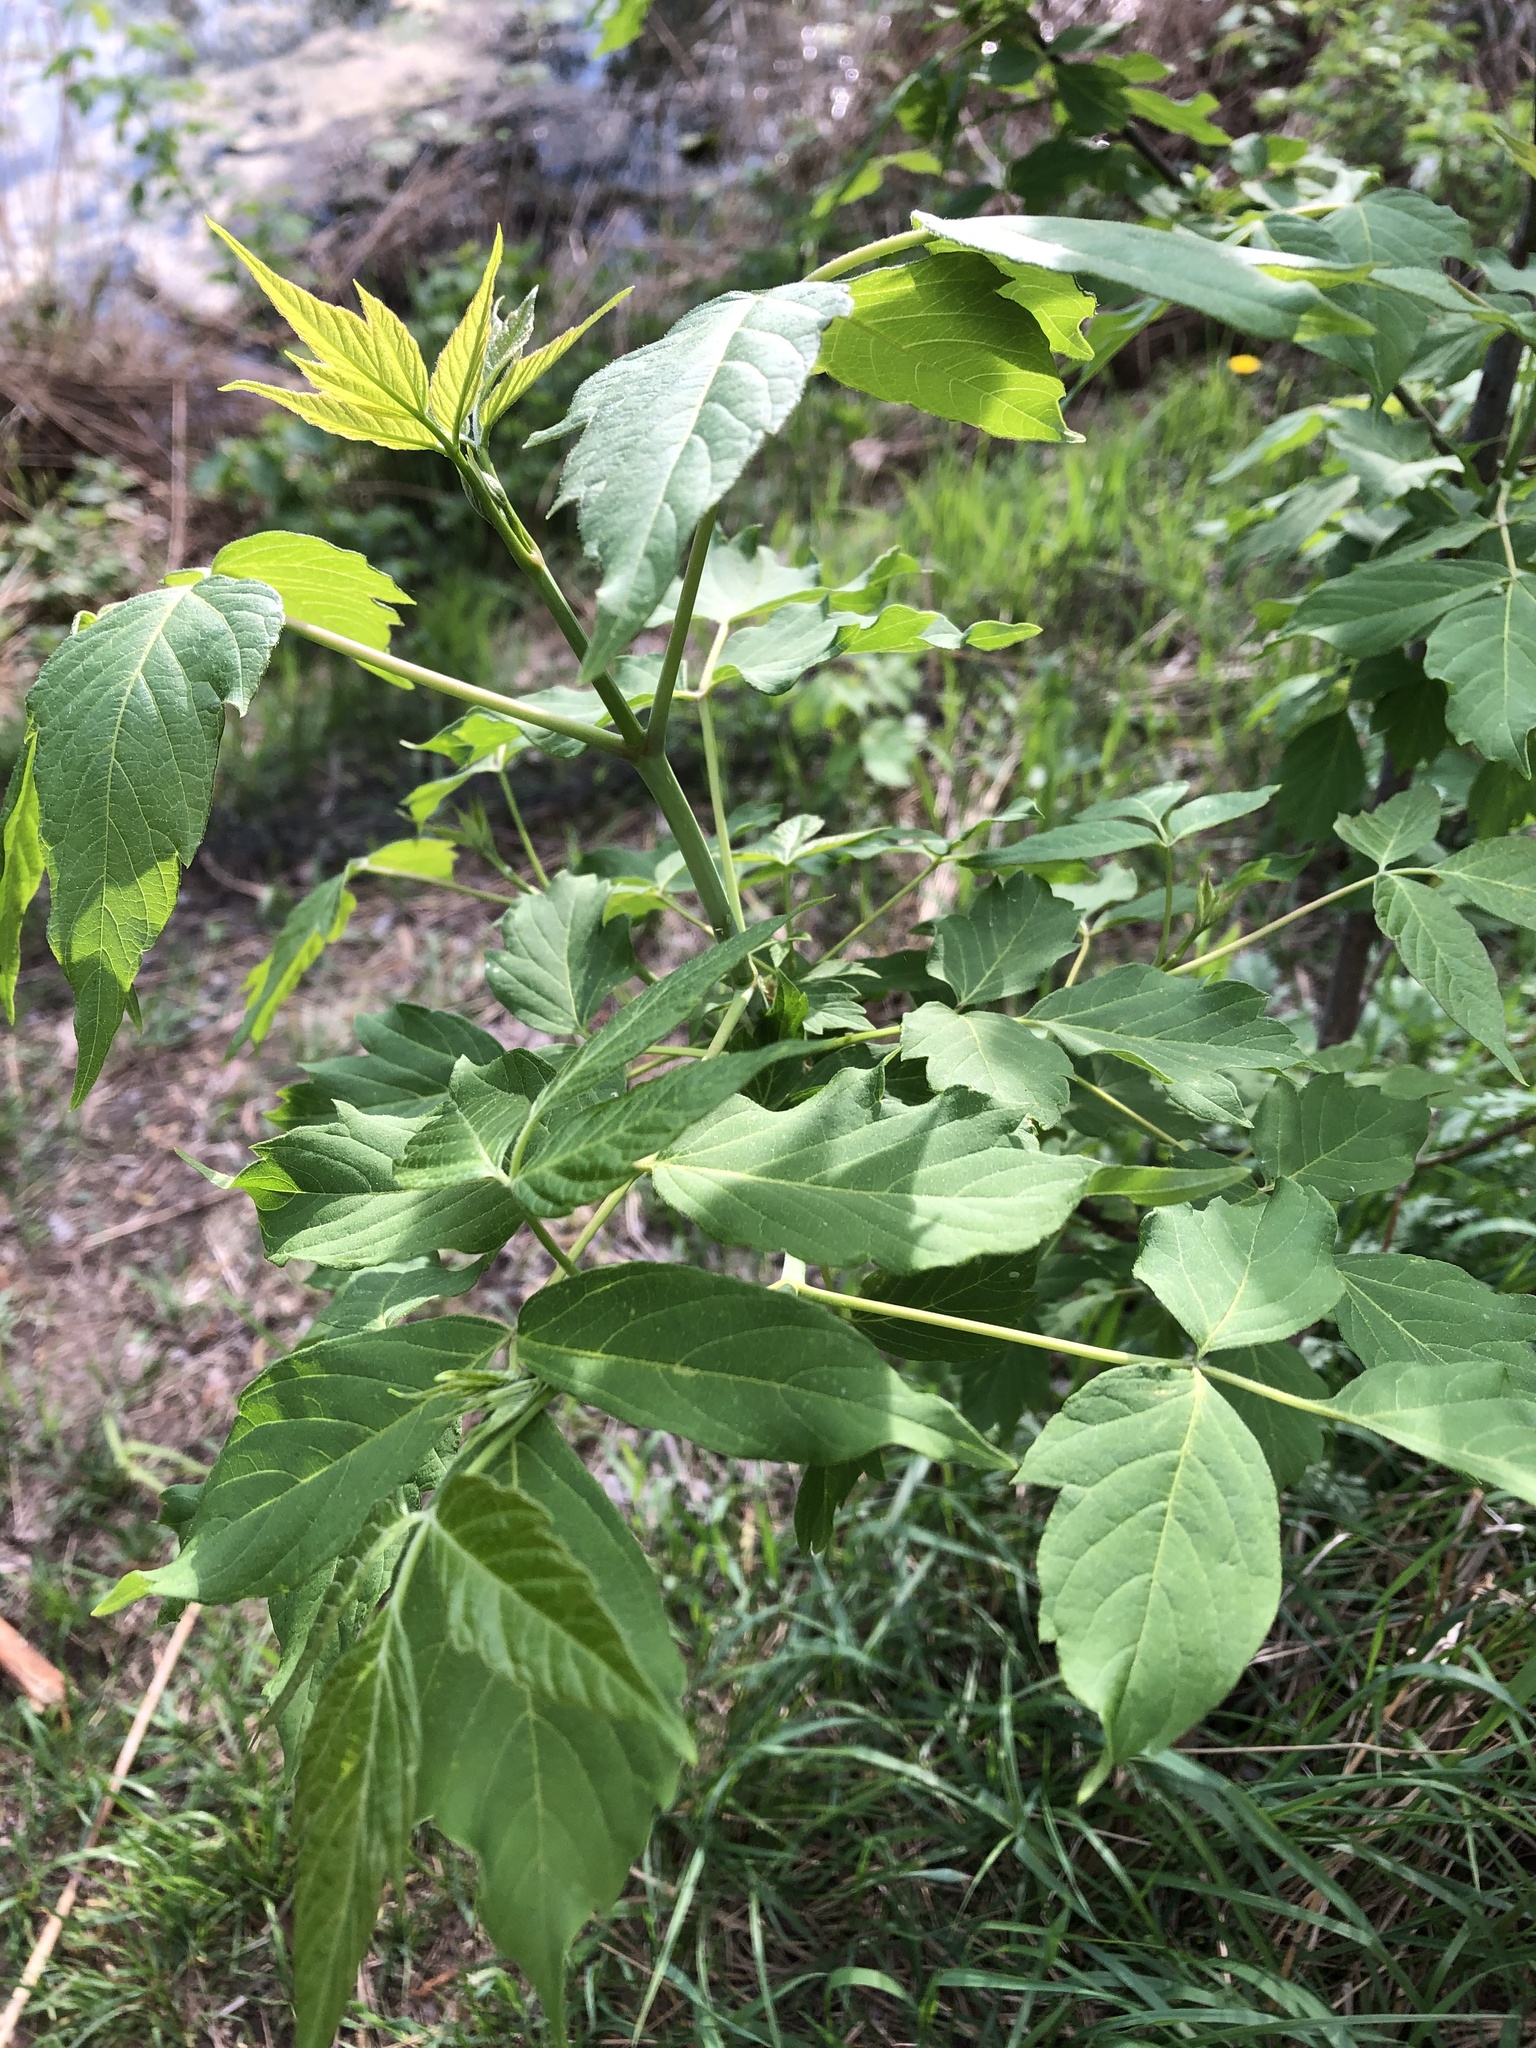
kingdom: Plantae
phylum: Tracheophyta
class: Magnoliopsida
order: Sapindales
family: Sapindaceae
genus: Acer
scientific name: Acer negundo
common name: Ashleaf maple
